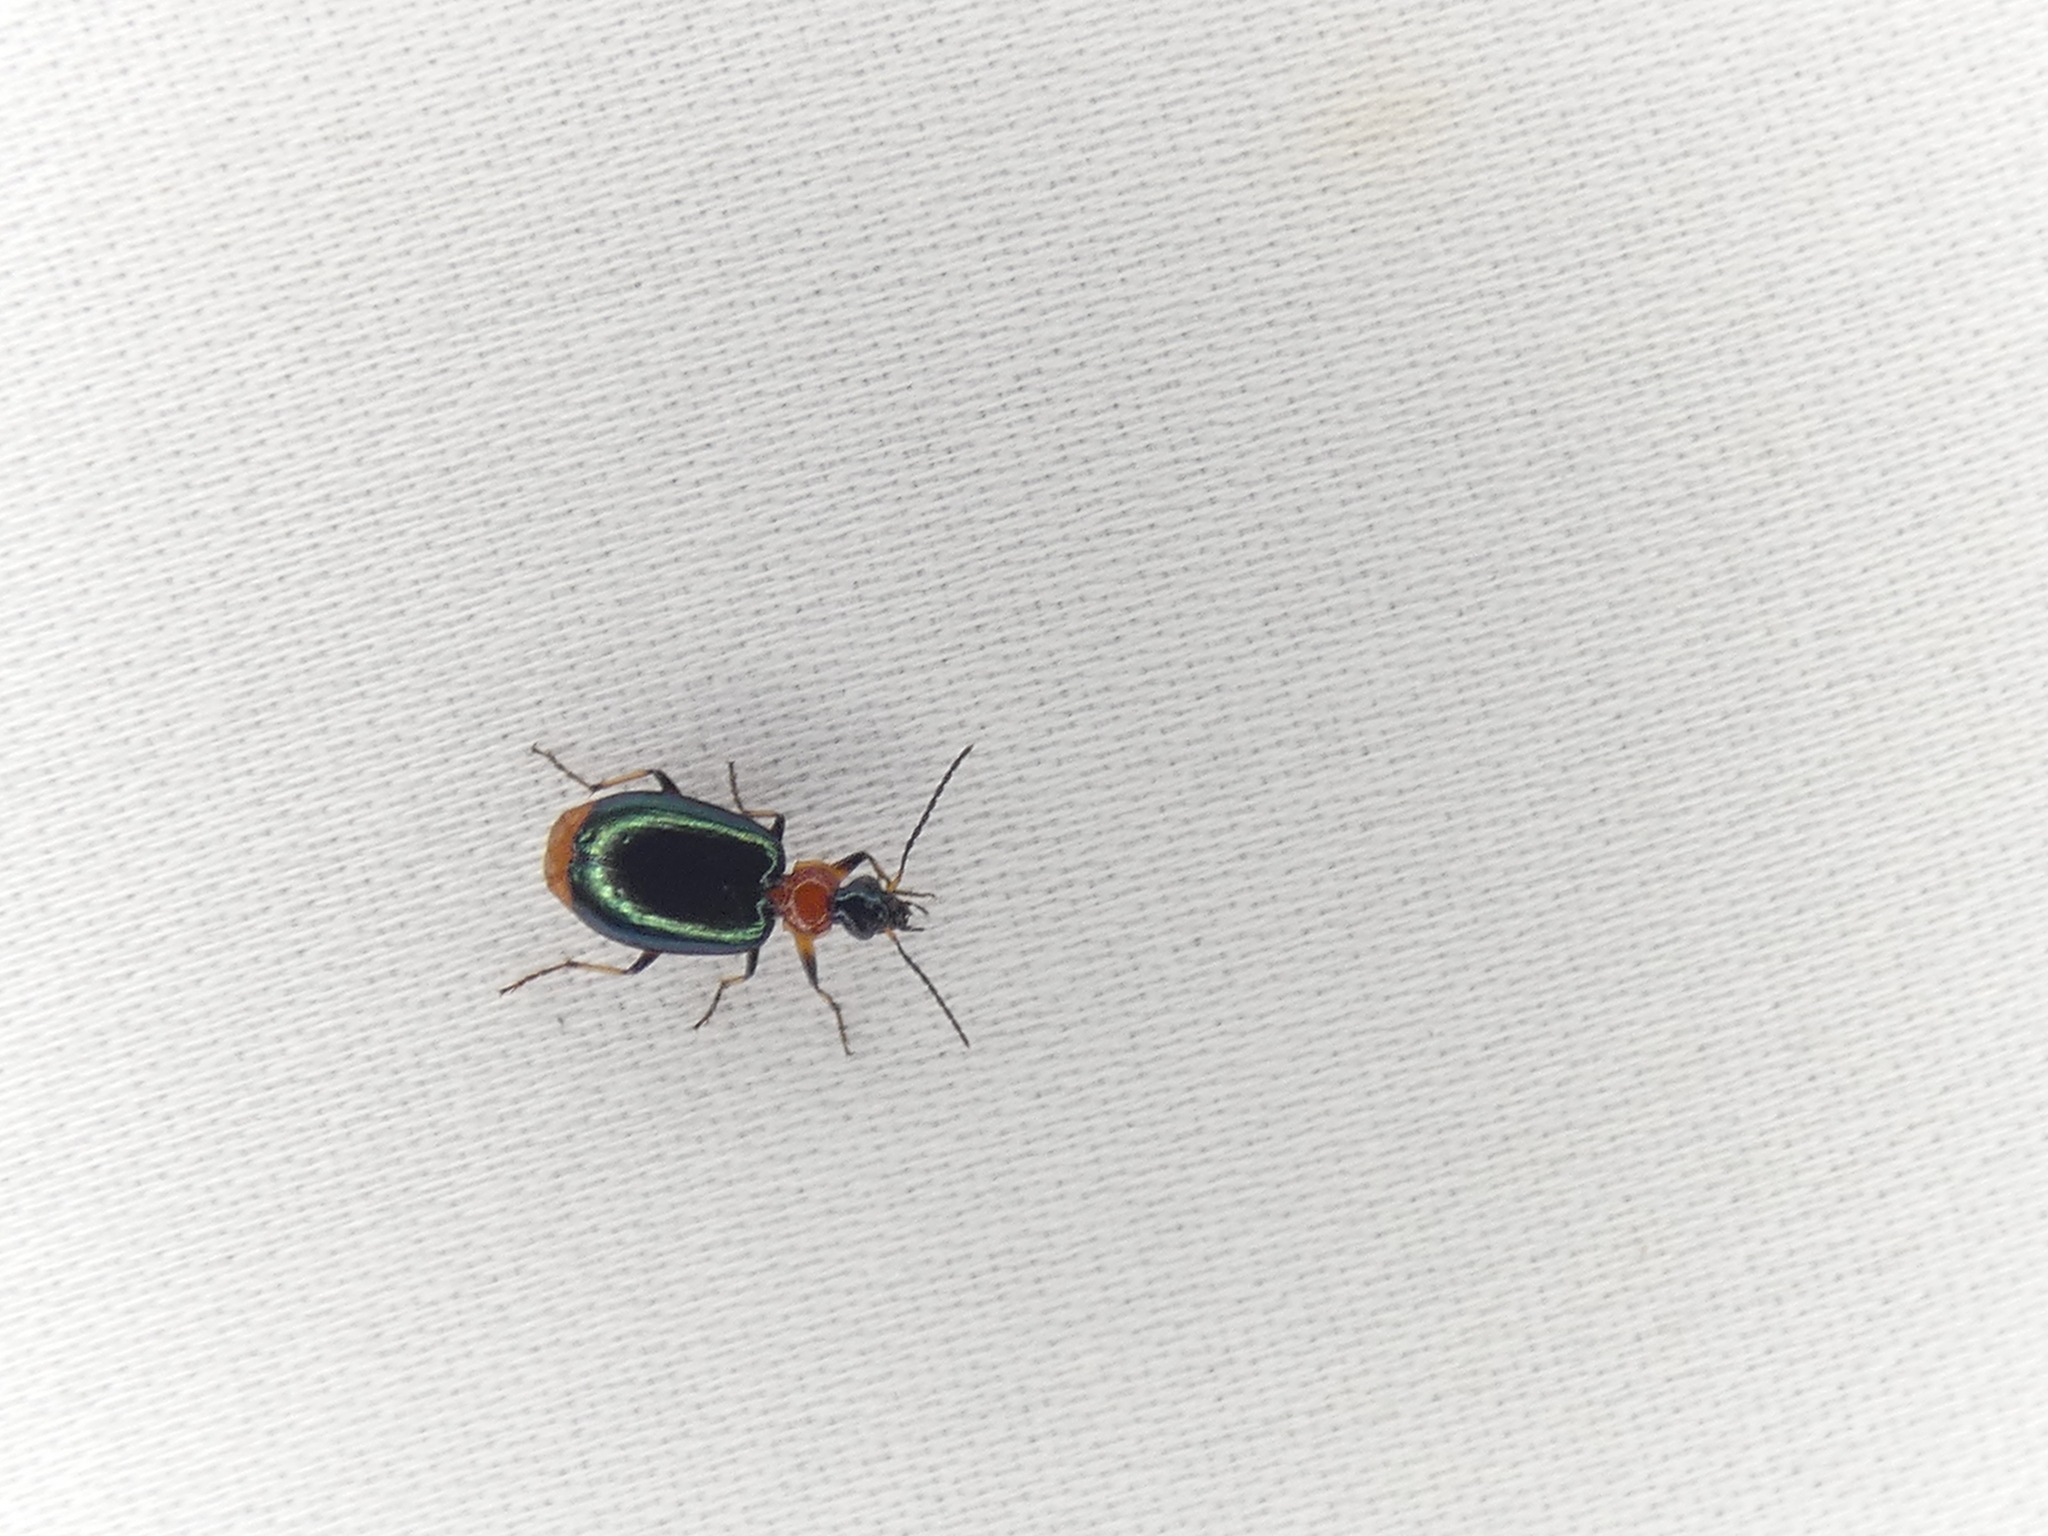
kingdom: Animalia
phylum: Arthropoda
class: Insecta
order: Coleoptera
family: Carabidae
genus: Lebia
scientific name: Lebia viridipennis
